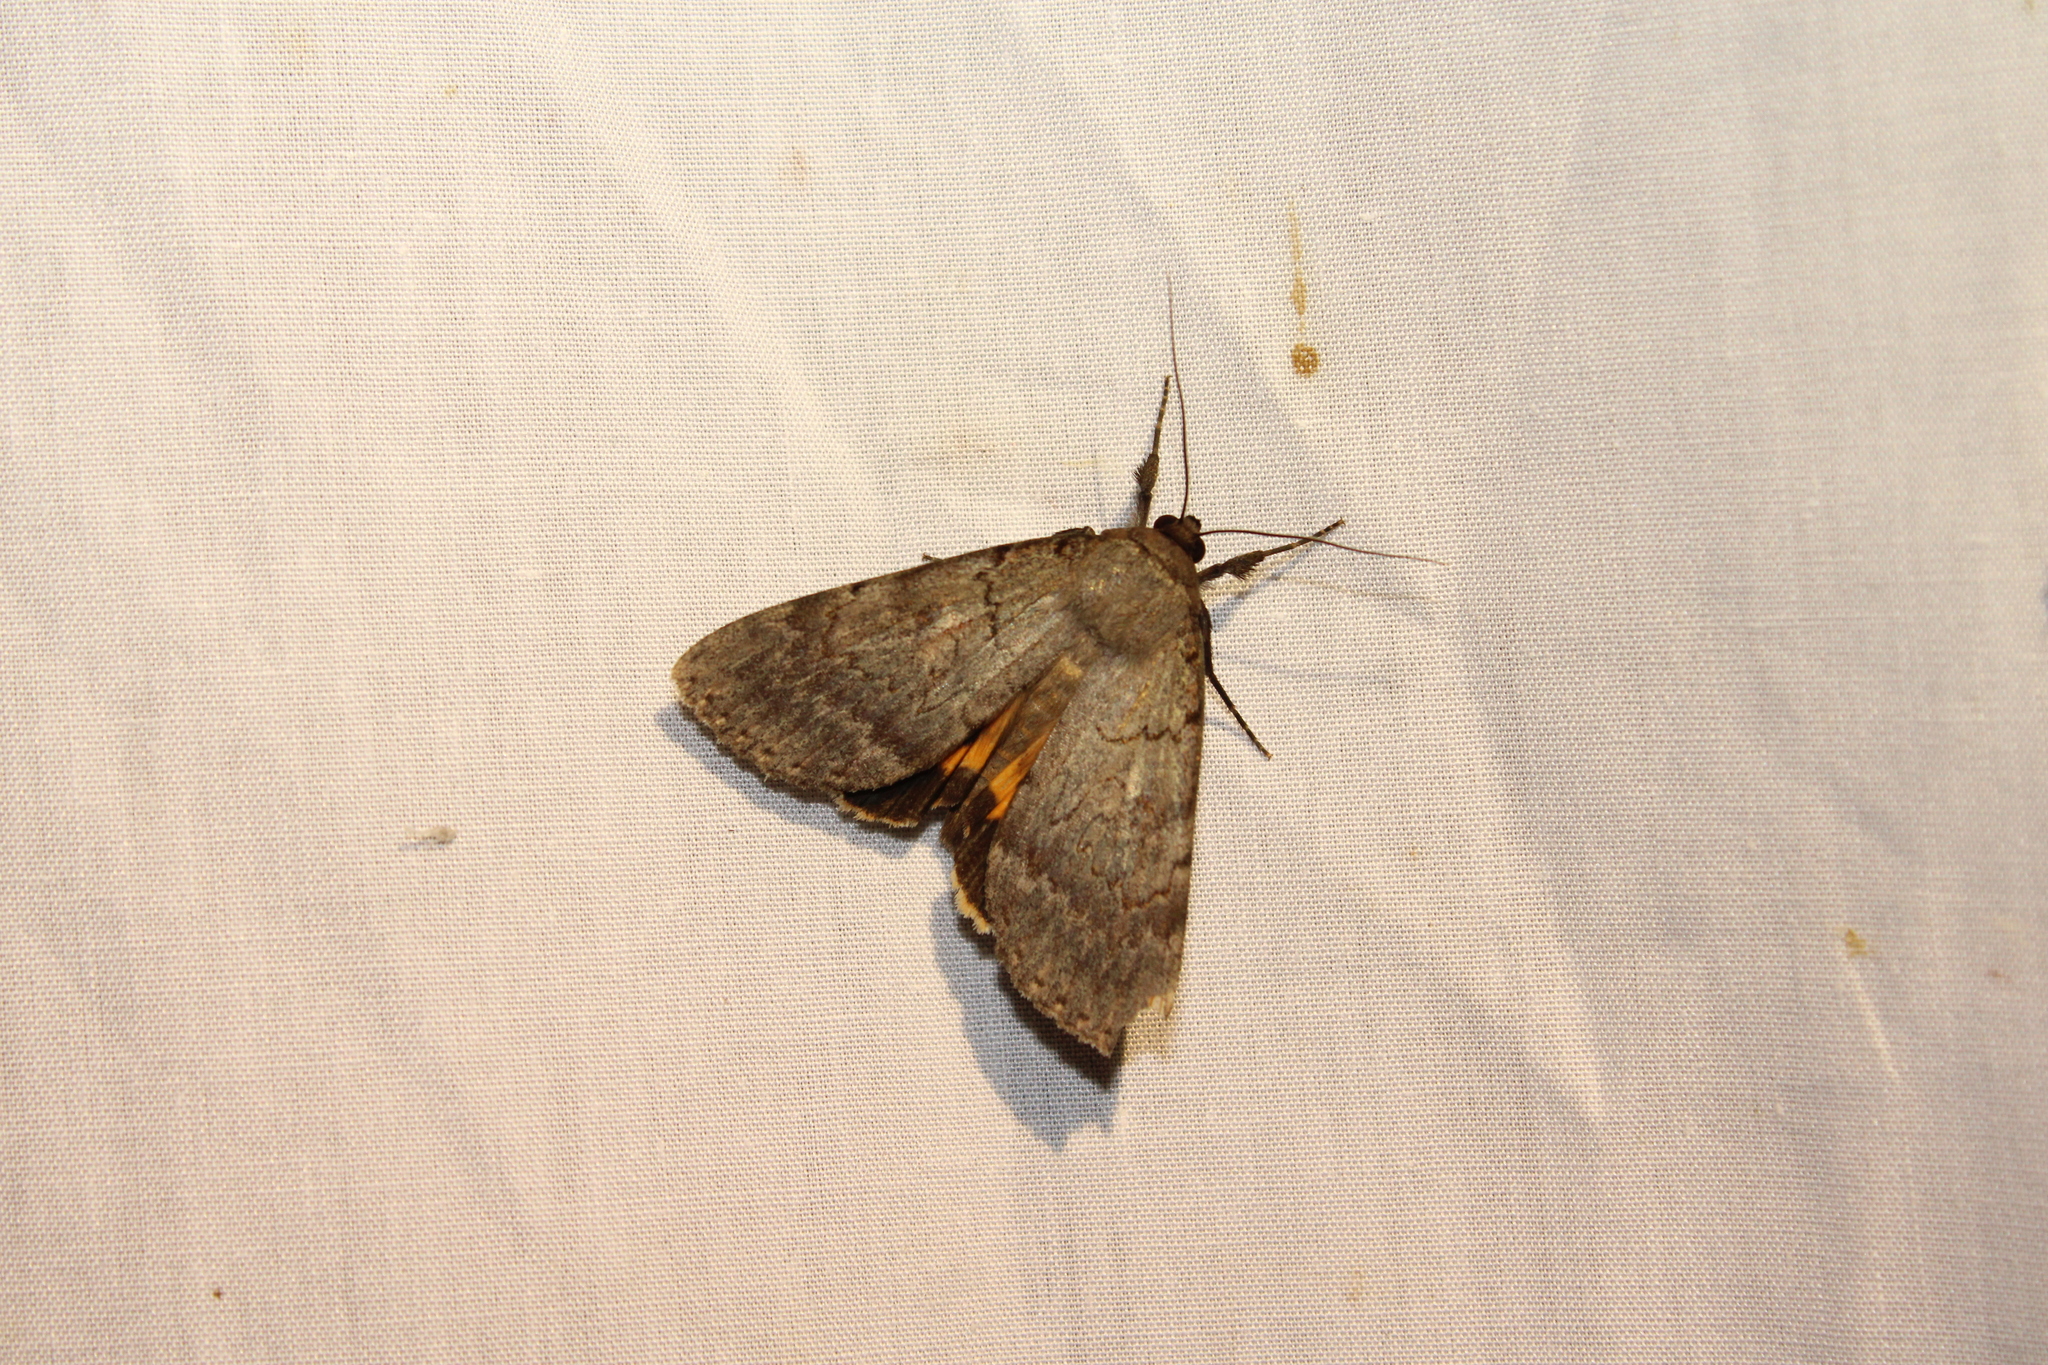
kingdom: Animalia
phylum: Arthropoda
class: Insecta
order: Lepidoptera
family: Erebidae
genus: Catocala
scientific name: Catocala serena
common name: Serene underwing
